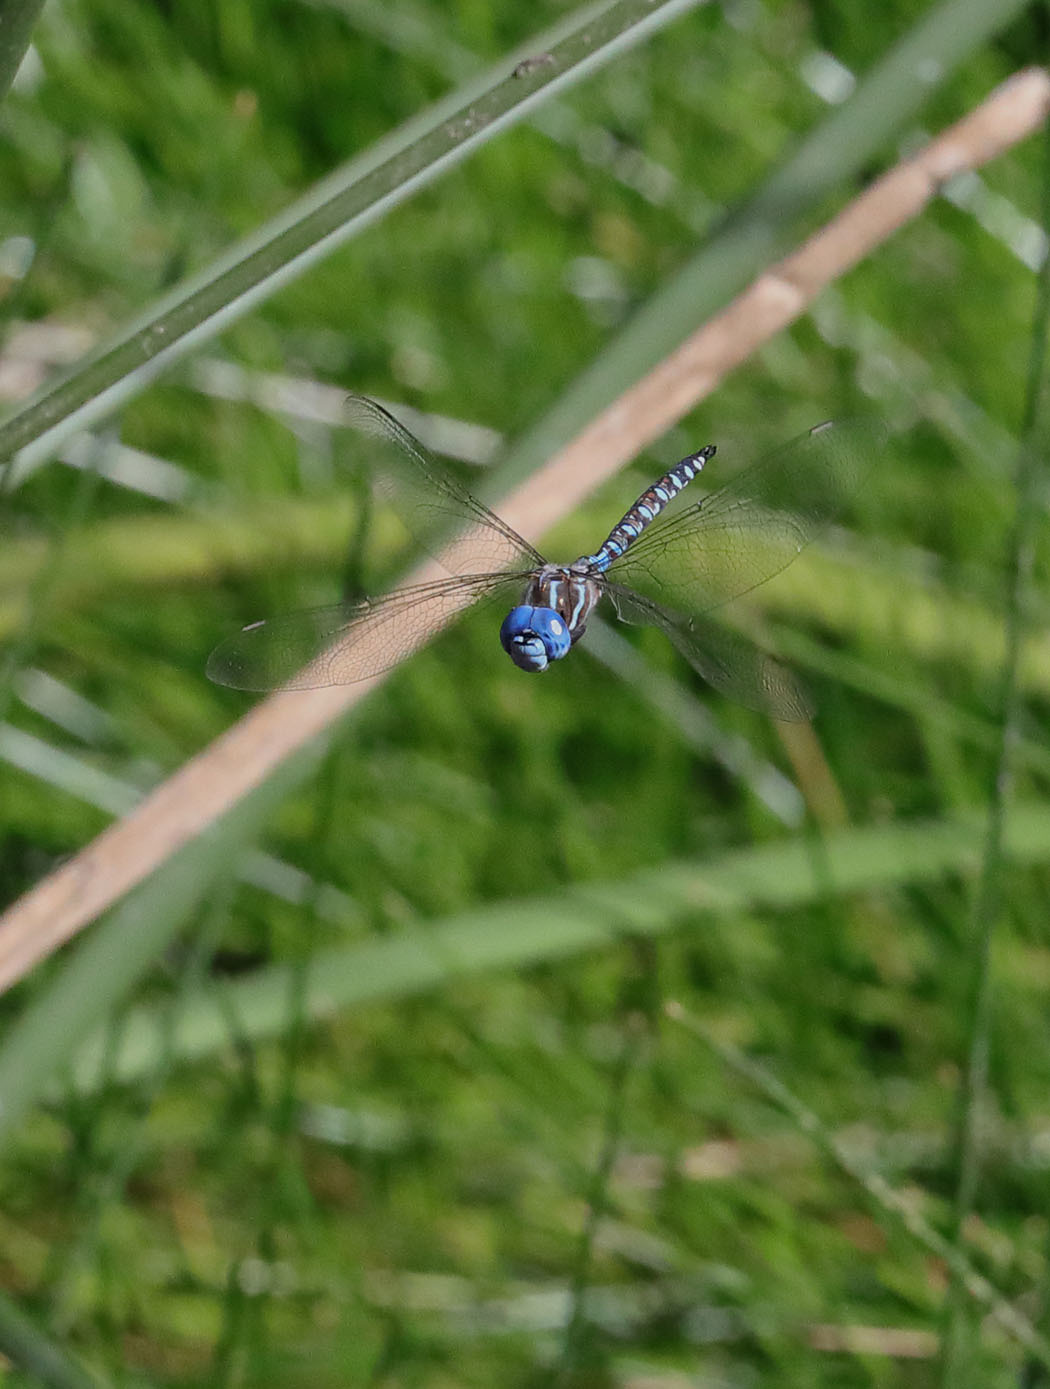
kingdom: Animalia
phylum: Arthropoda
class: Insecta
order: Odonata
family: Aeshnidae
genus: Rhionaeschna
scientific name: Rhionaeschna multicolor
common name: Blue-eyed darner
